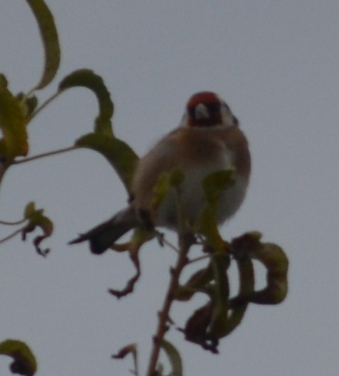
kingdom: Animalia
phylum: Chordata
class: Aves
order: Passeriformes
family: Fringillidae
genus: Carduelis
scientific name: Carduelis carduelis
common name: European goldfinch
